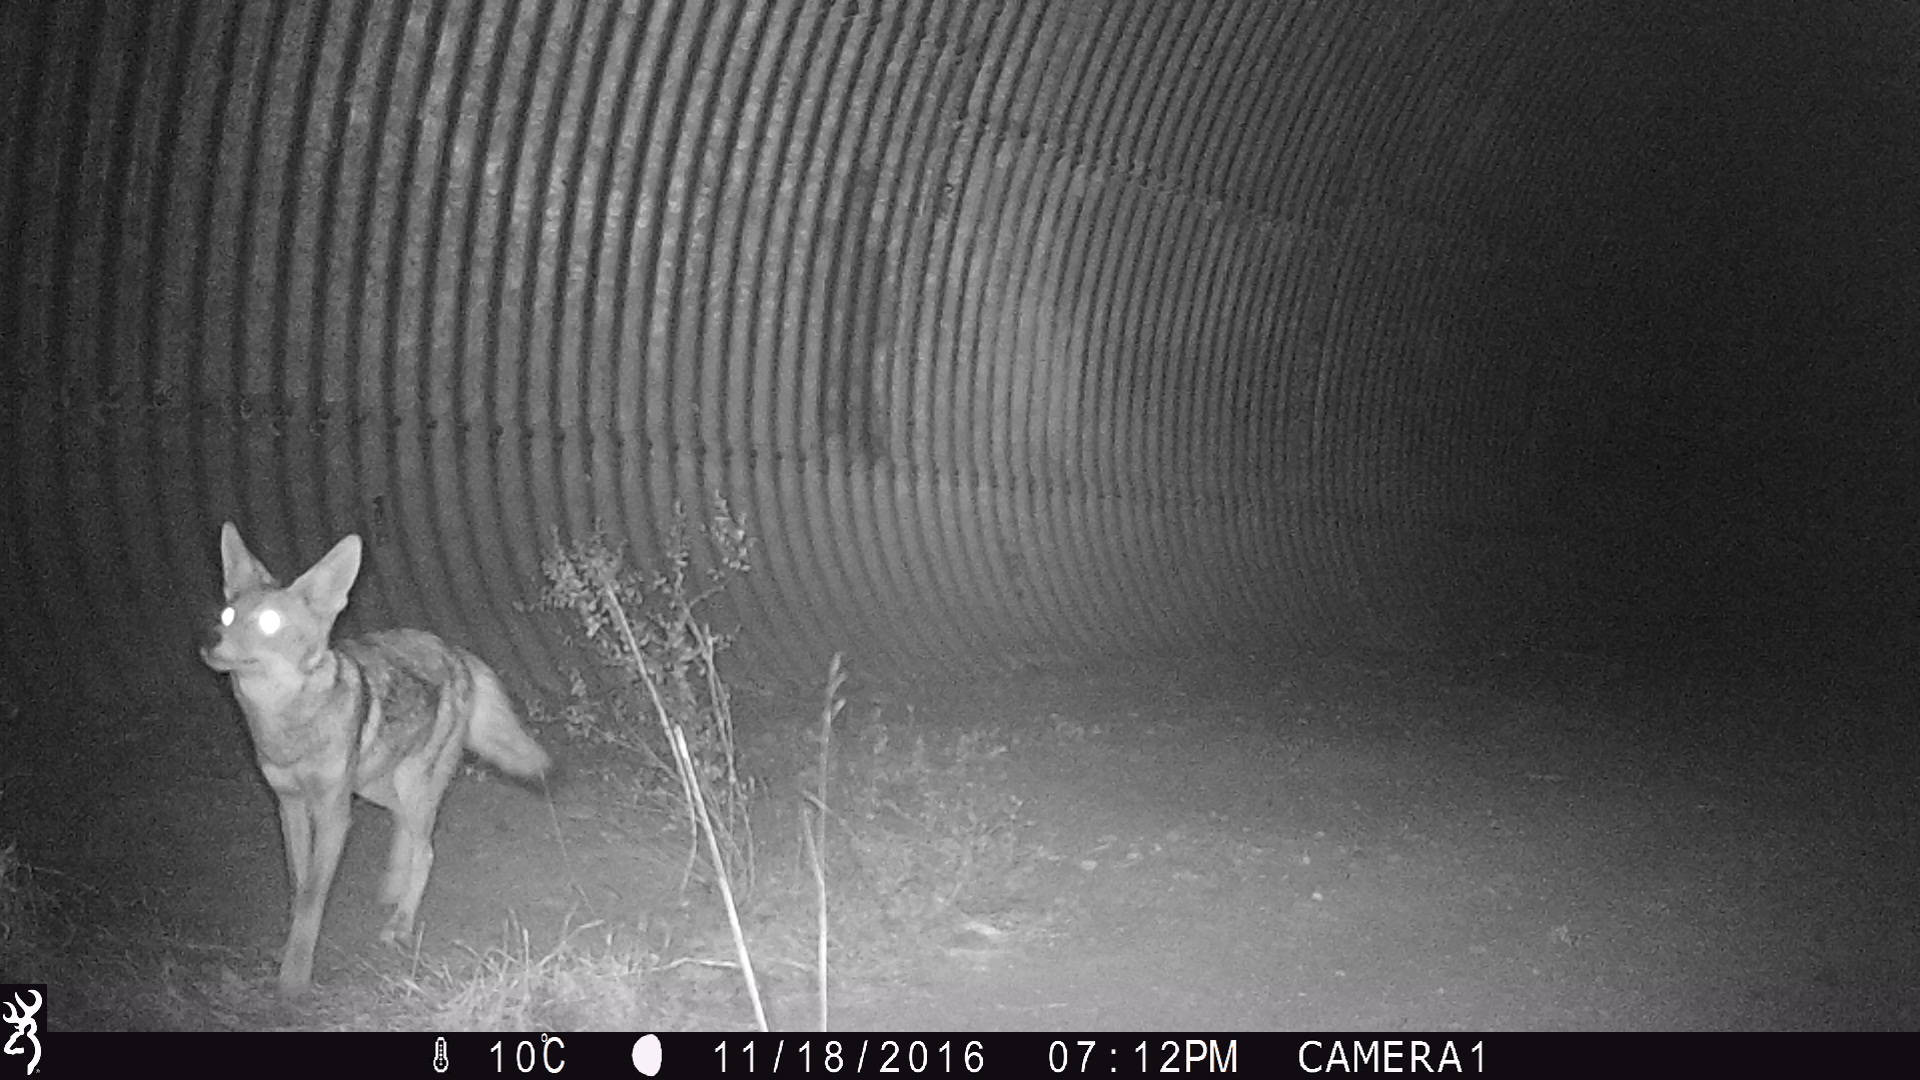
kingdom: Animalia
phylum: Chordata
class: Mammalia
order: Carnivora
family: Canidae
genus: Canis
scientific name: Canis latrans
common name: Coyote
